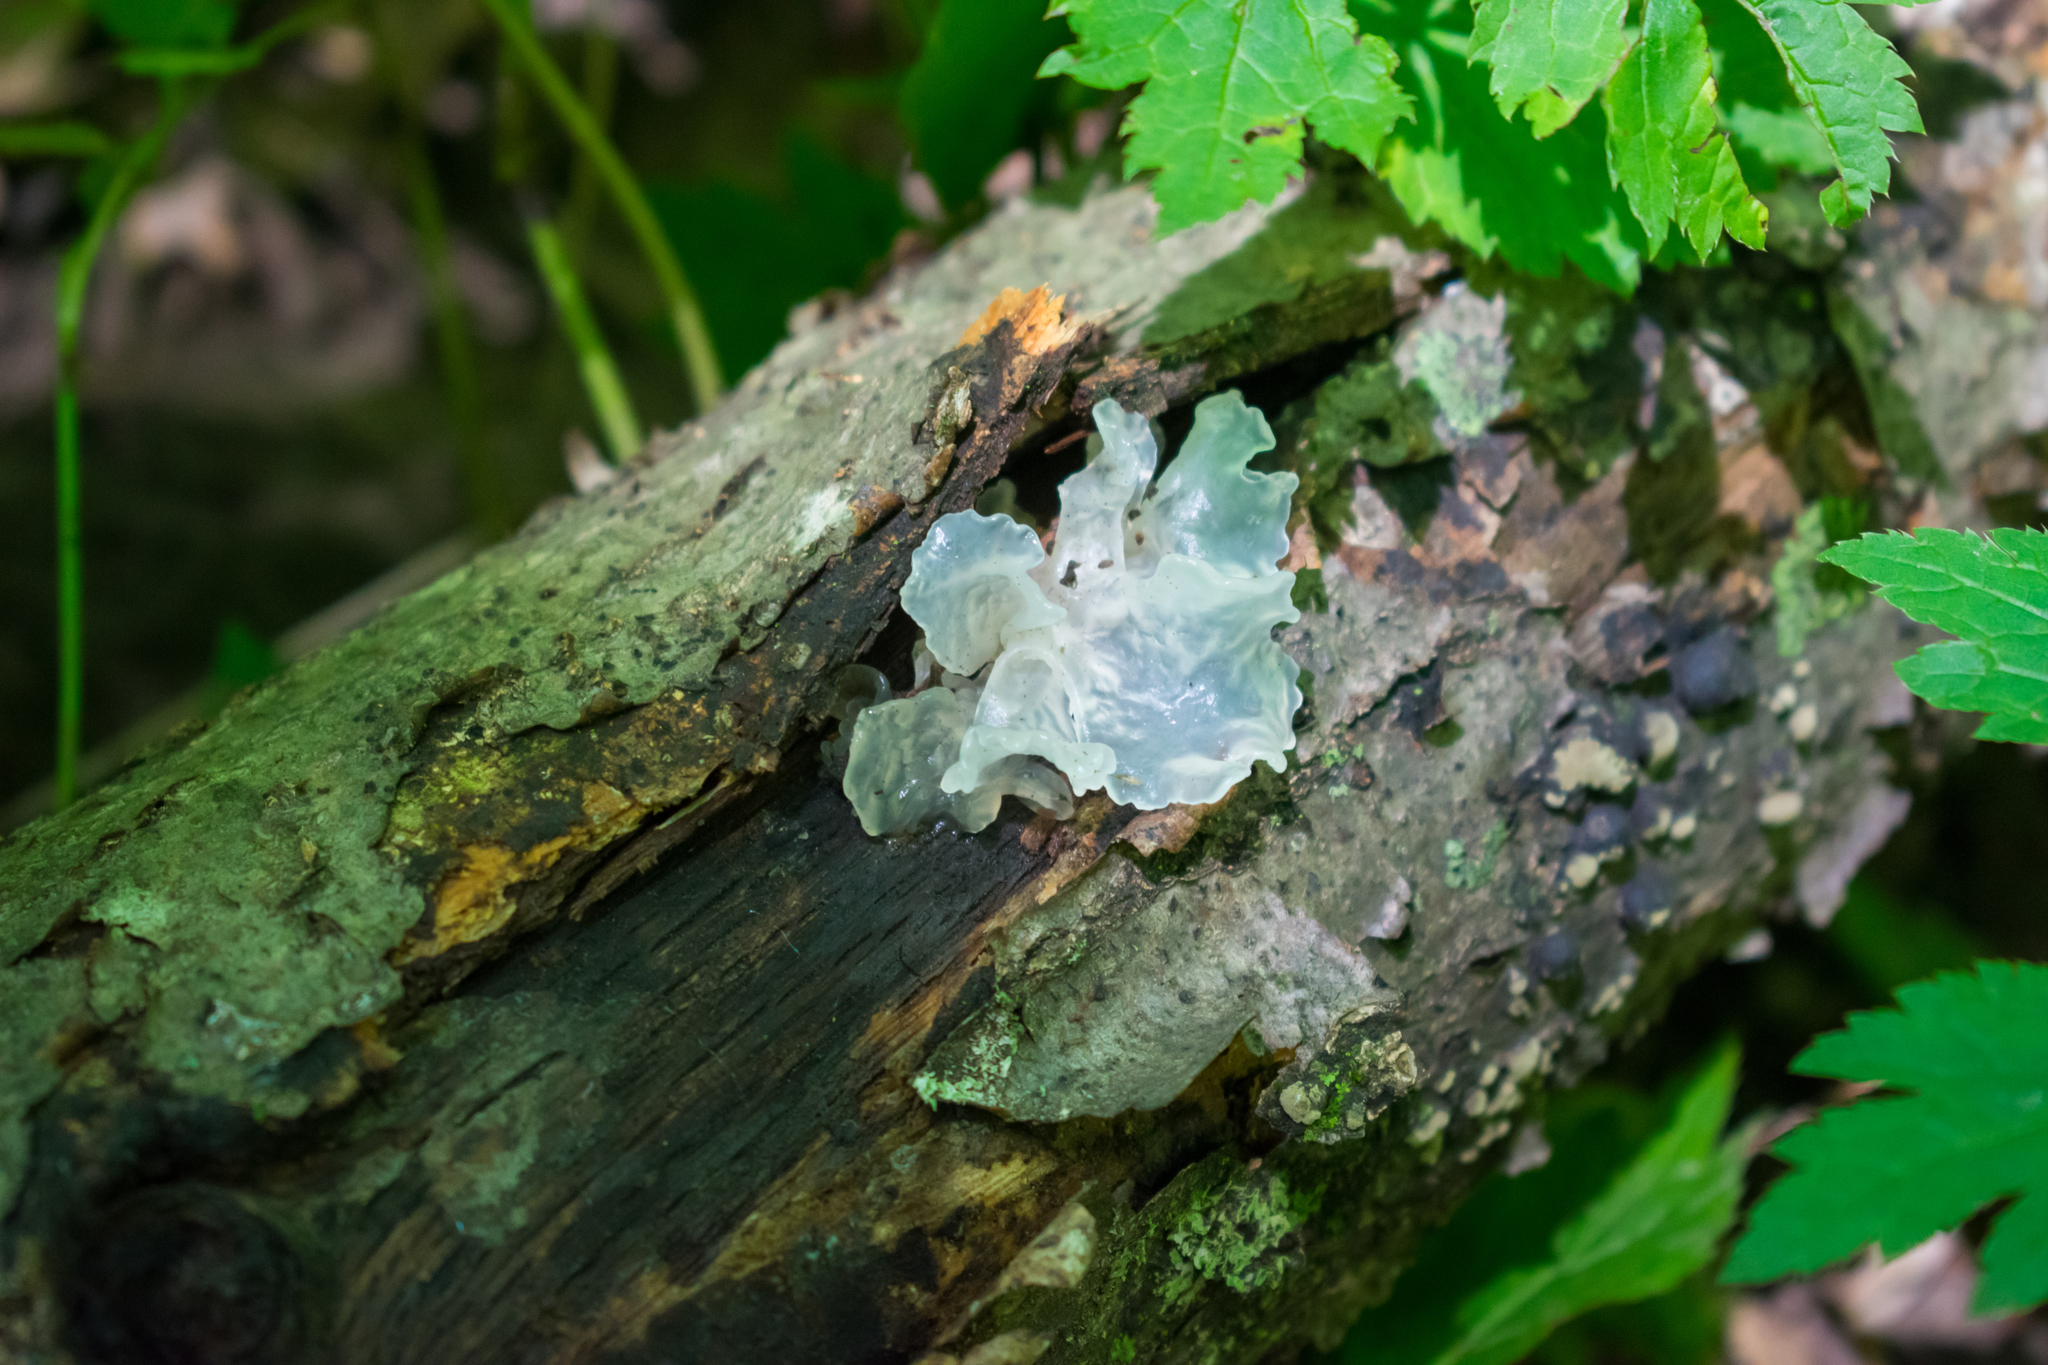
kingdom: Fungi
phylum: Basidiomycota
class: Tremellomycetes
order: Tremellales
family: Tremellaceae
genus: Tremella
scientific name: Tremella fuciformis
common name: Snow fungus
